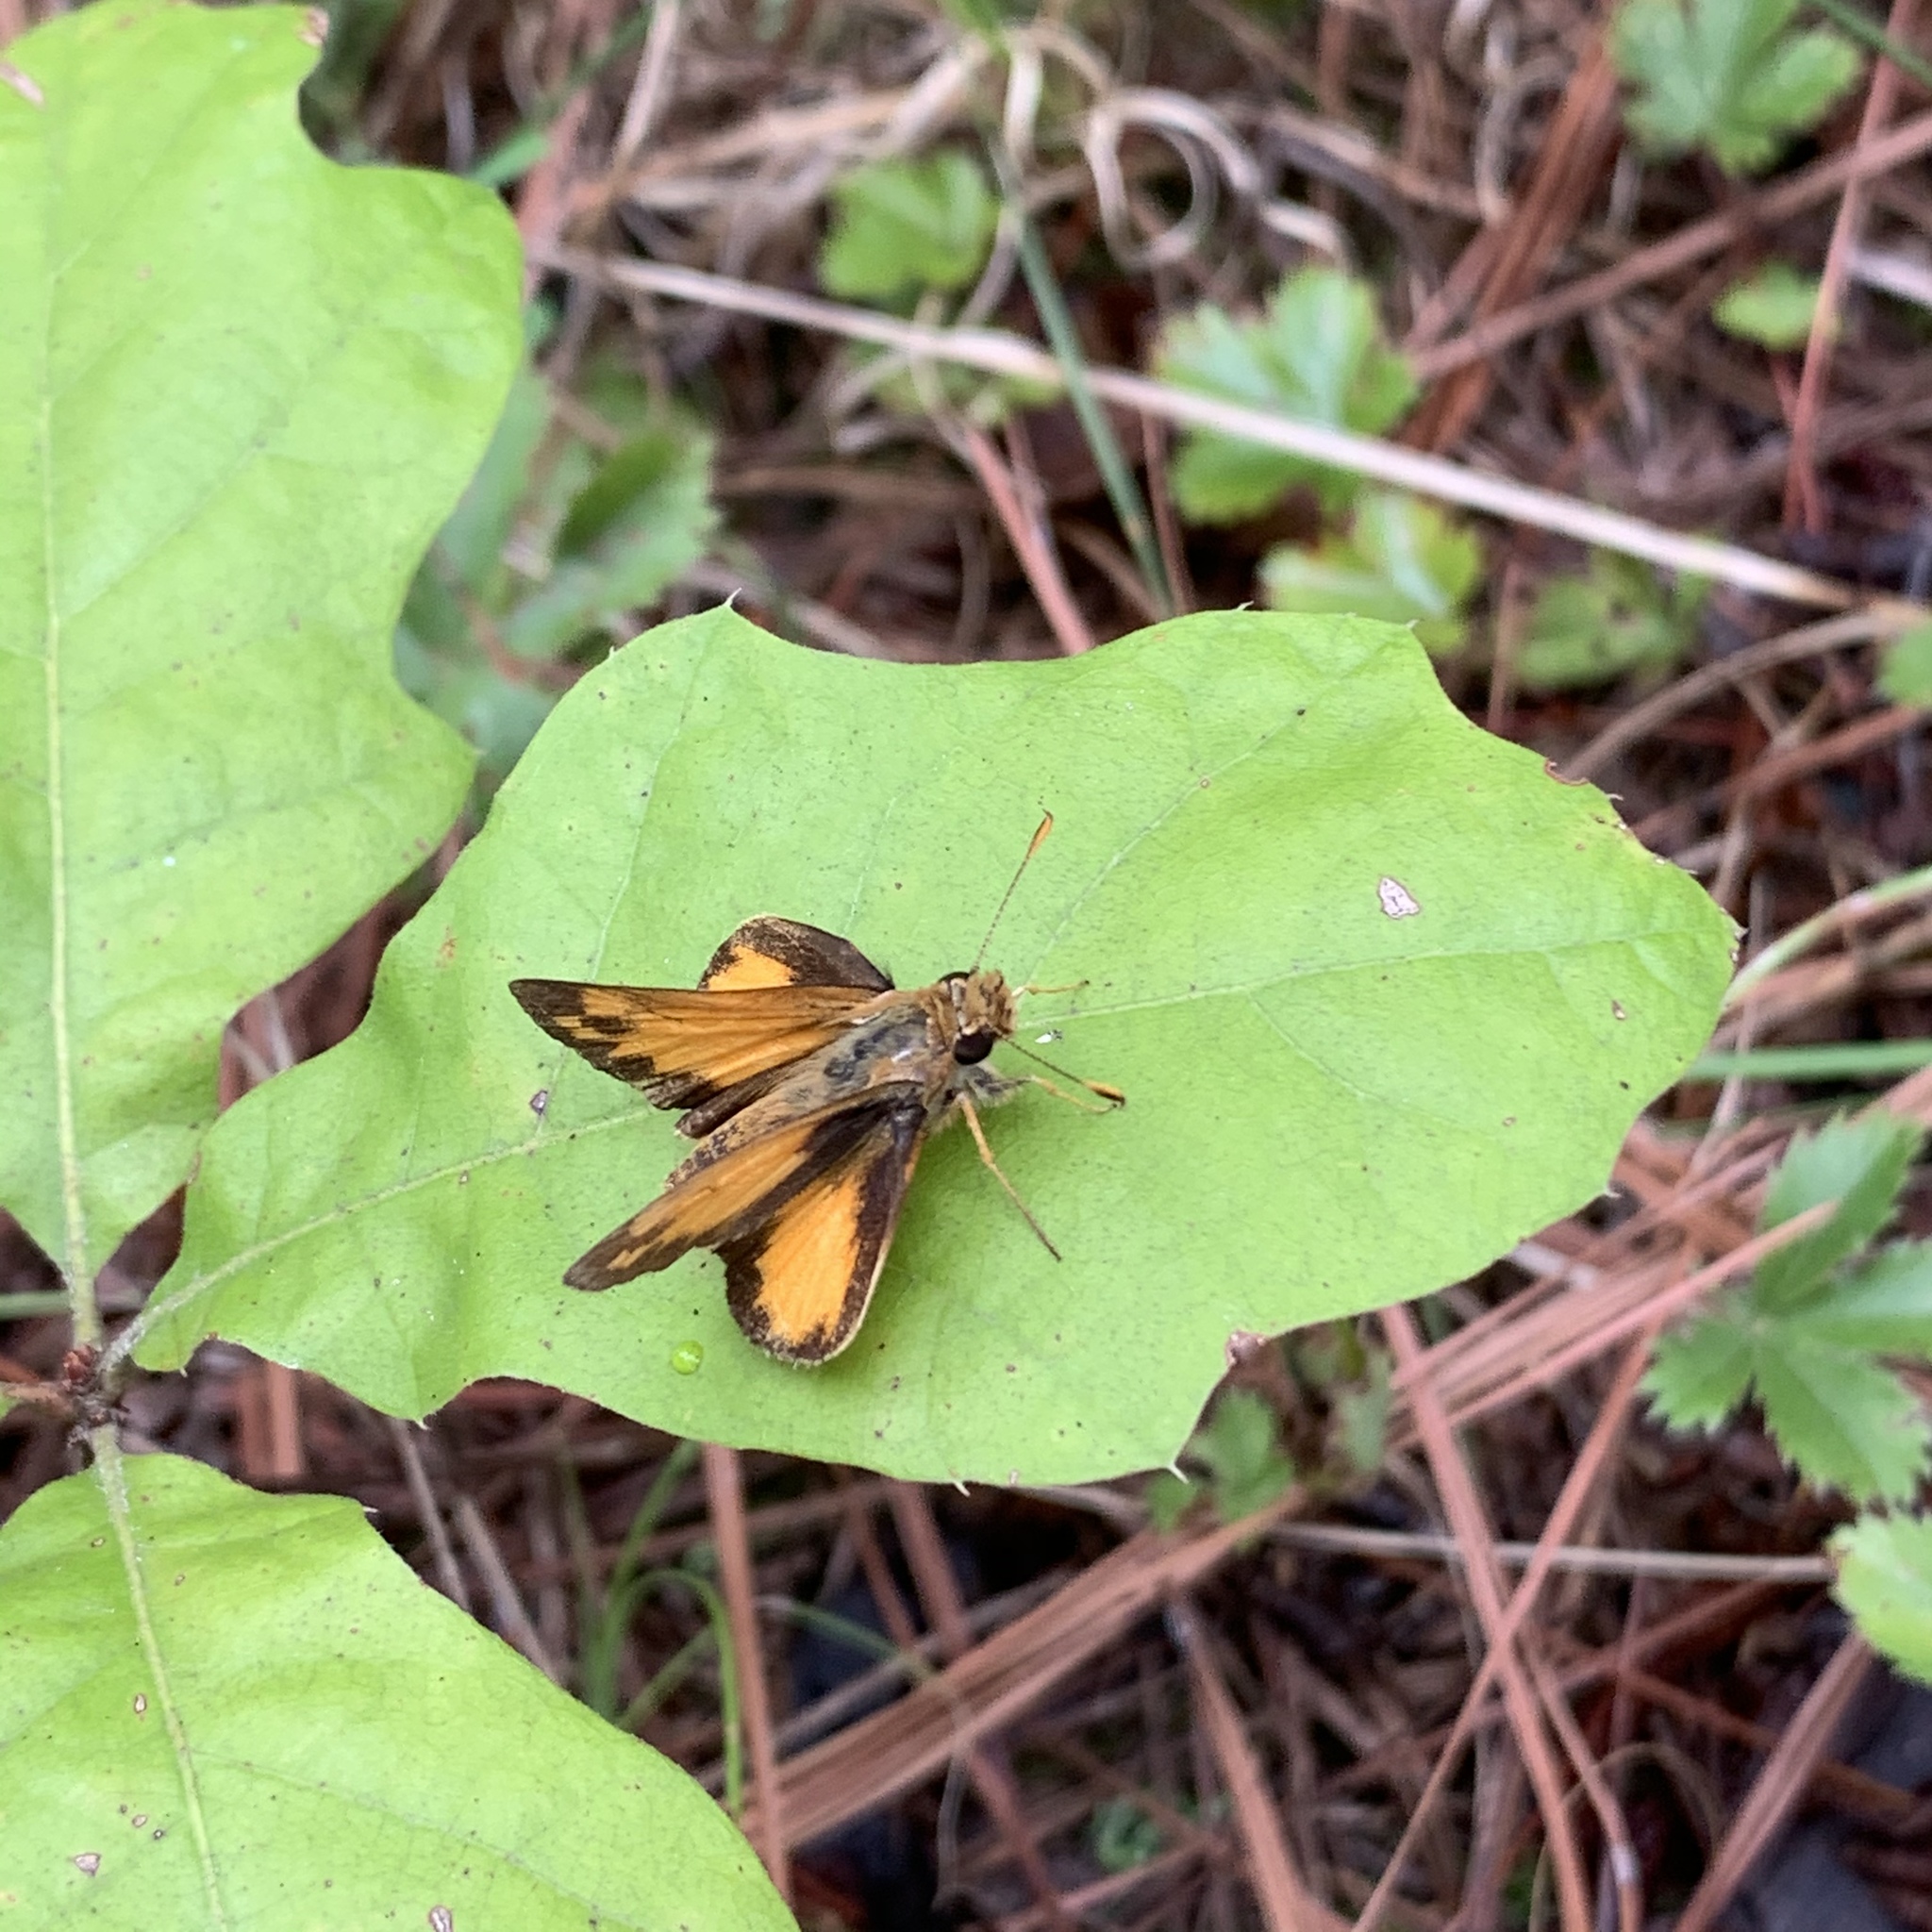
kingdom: Animalia
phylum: Arthropoda
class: Insecta
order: Lepidoptera
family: Hesperiidae
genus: Lon
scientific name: Lon zabulon
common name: Zabulon skipper
